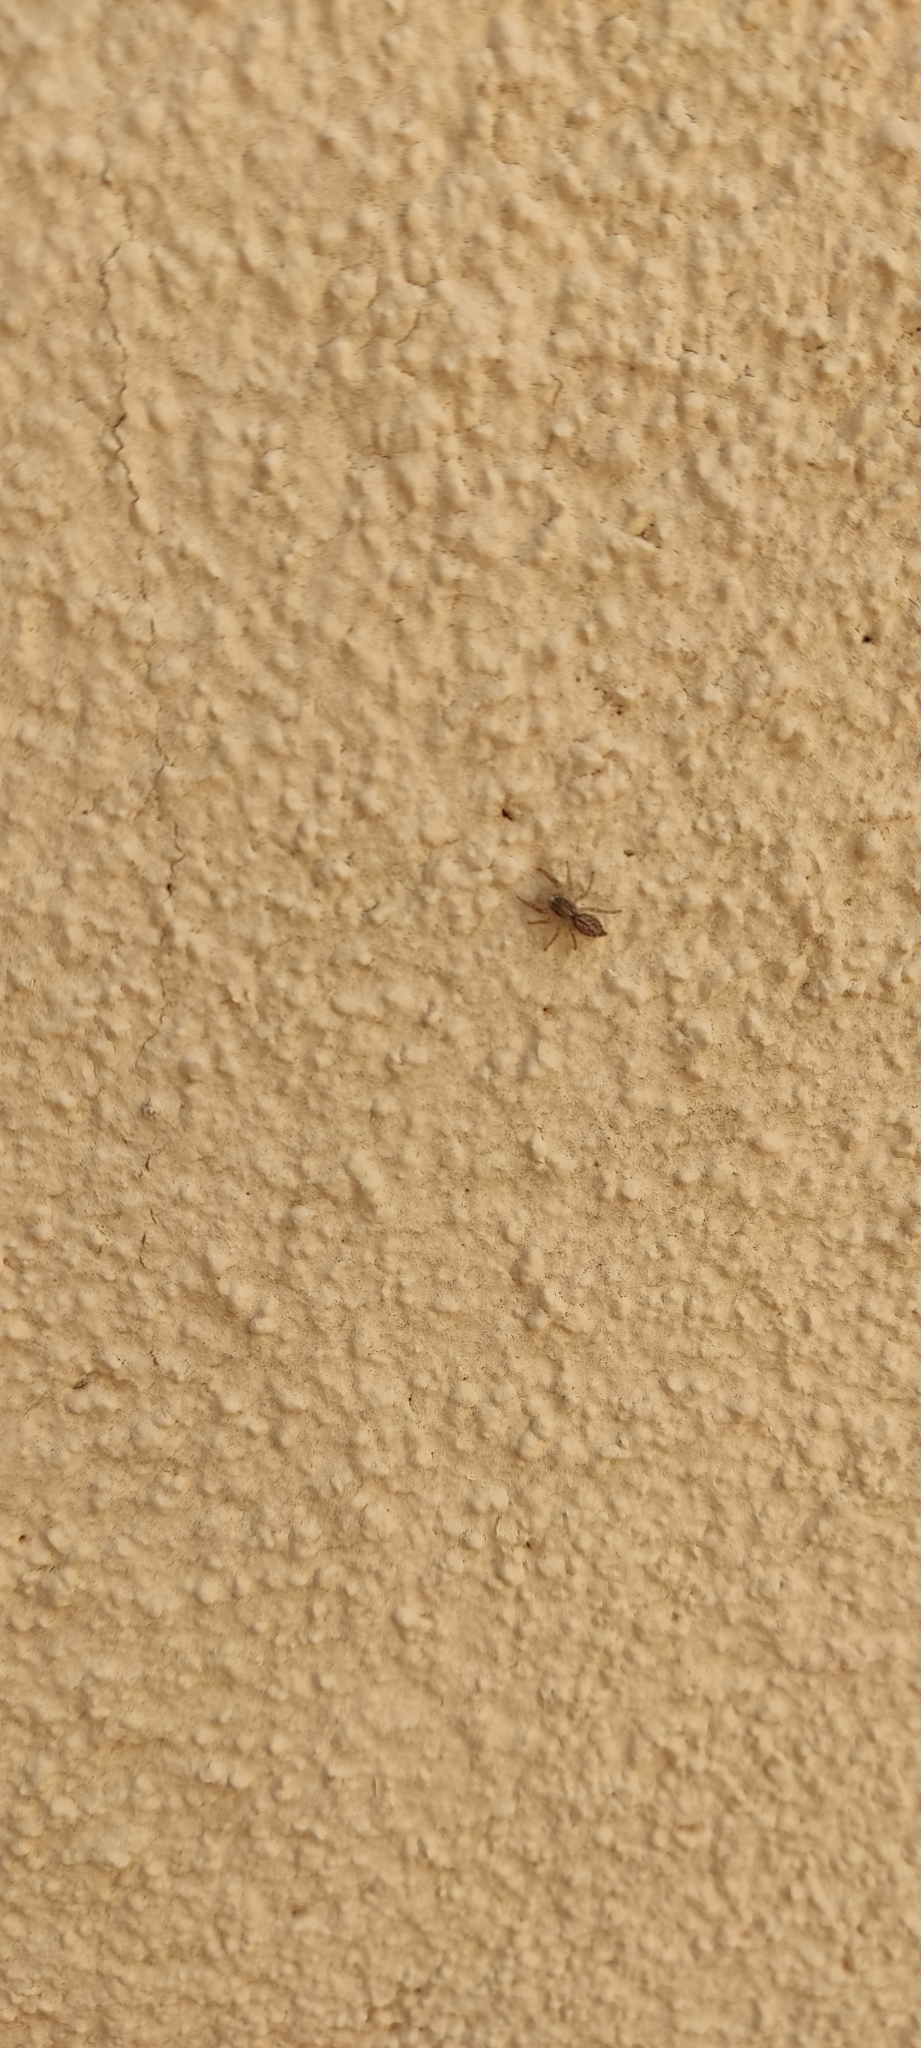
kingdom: Animalia
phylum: Arthropoda
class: Arachnida
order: Araneae
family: Salticidae
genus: Pseudicius
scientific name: Pseudicius encarpatus
